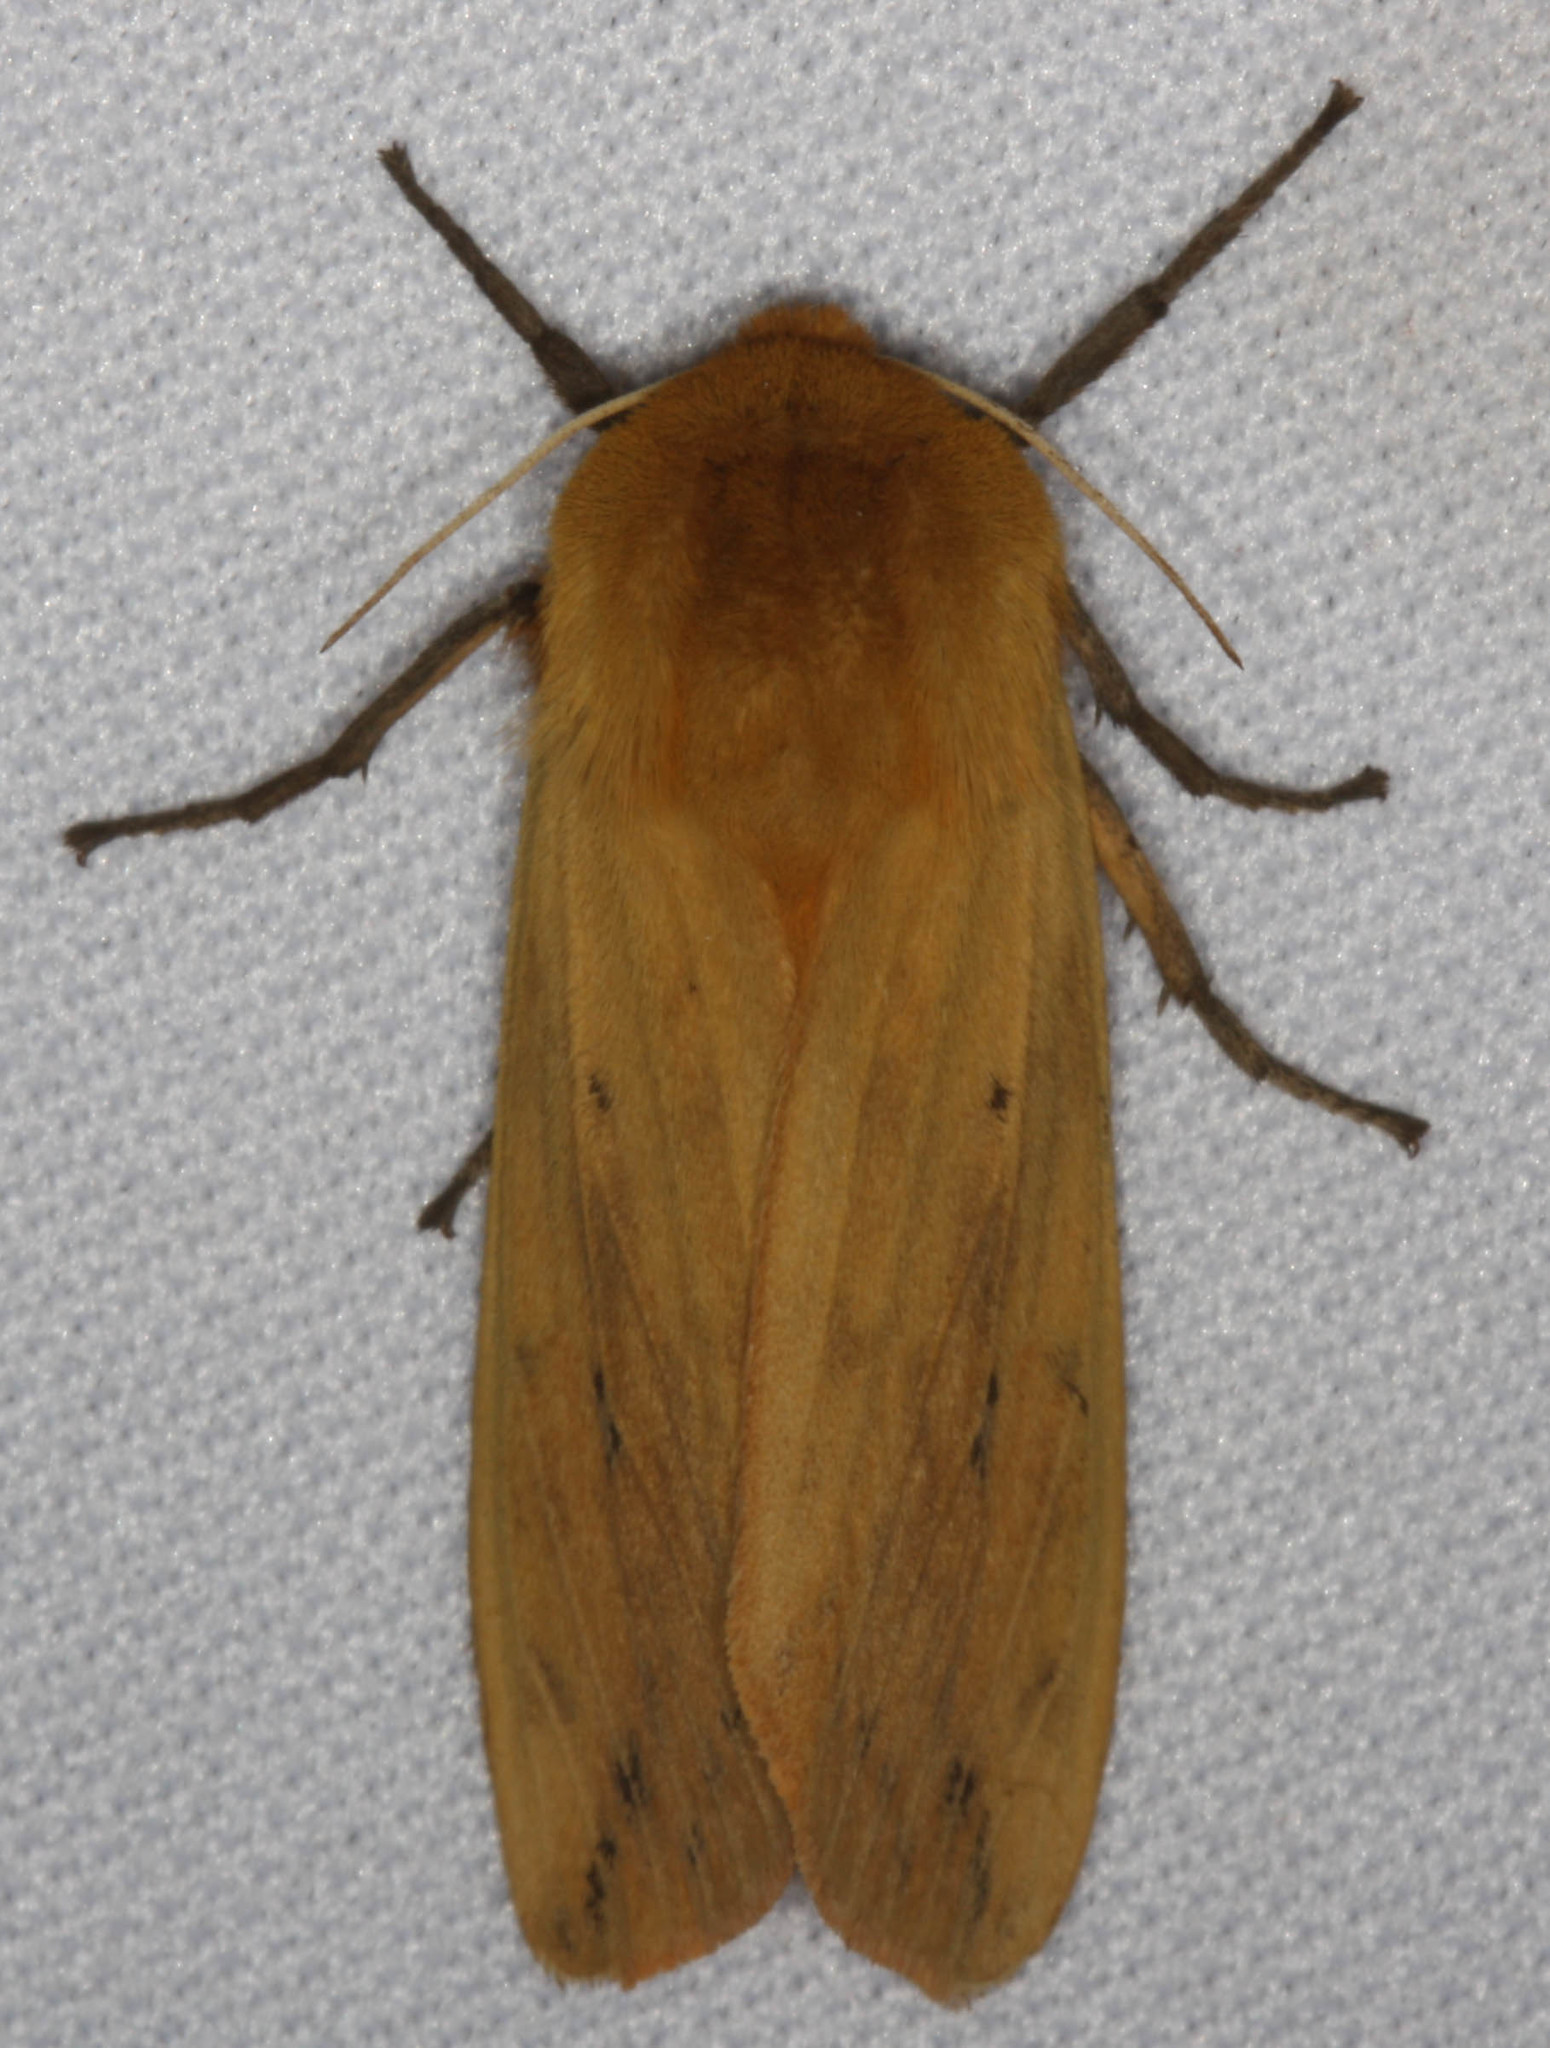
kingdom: Animalia
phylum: Arthropoda
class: Insecta
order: Lepidoptera
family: Erebidae
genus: Pyrrharctia
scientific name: Pyrrharctia isabella
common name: Isabella tiger moth
